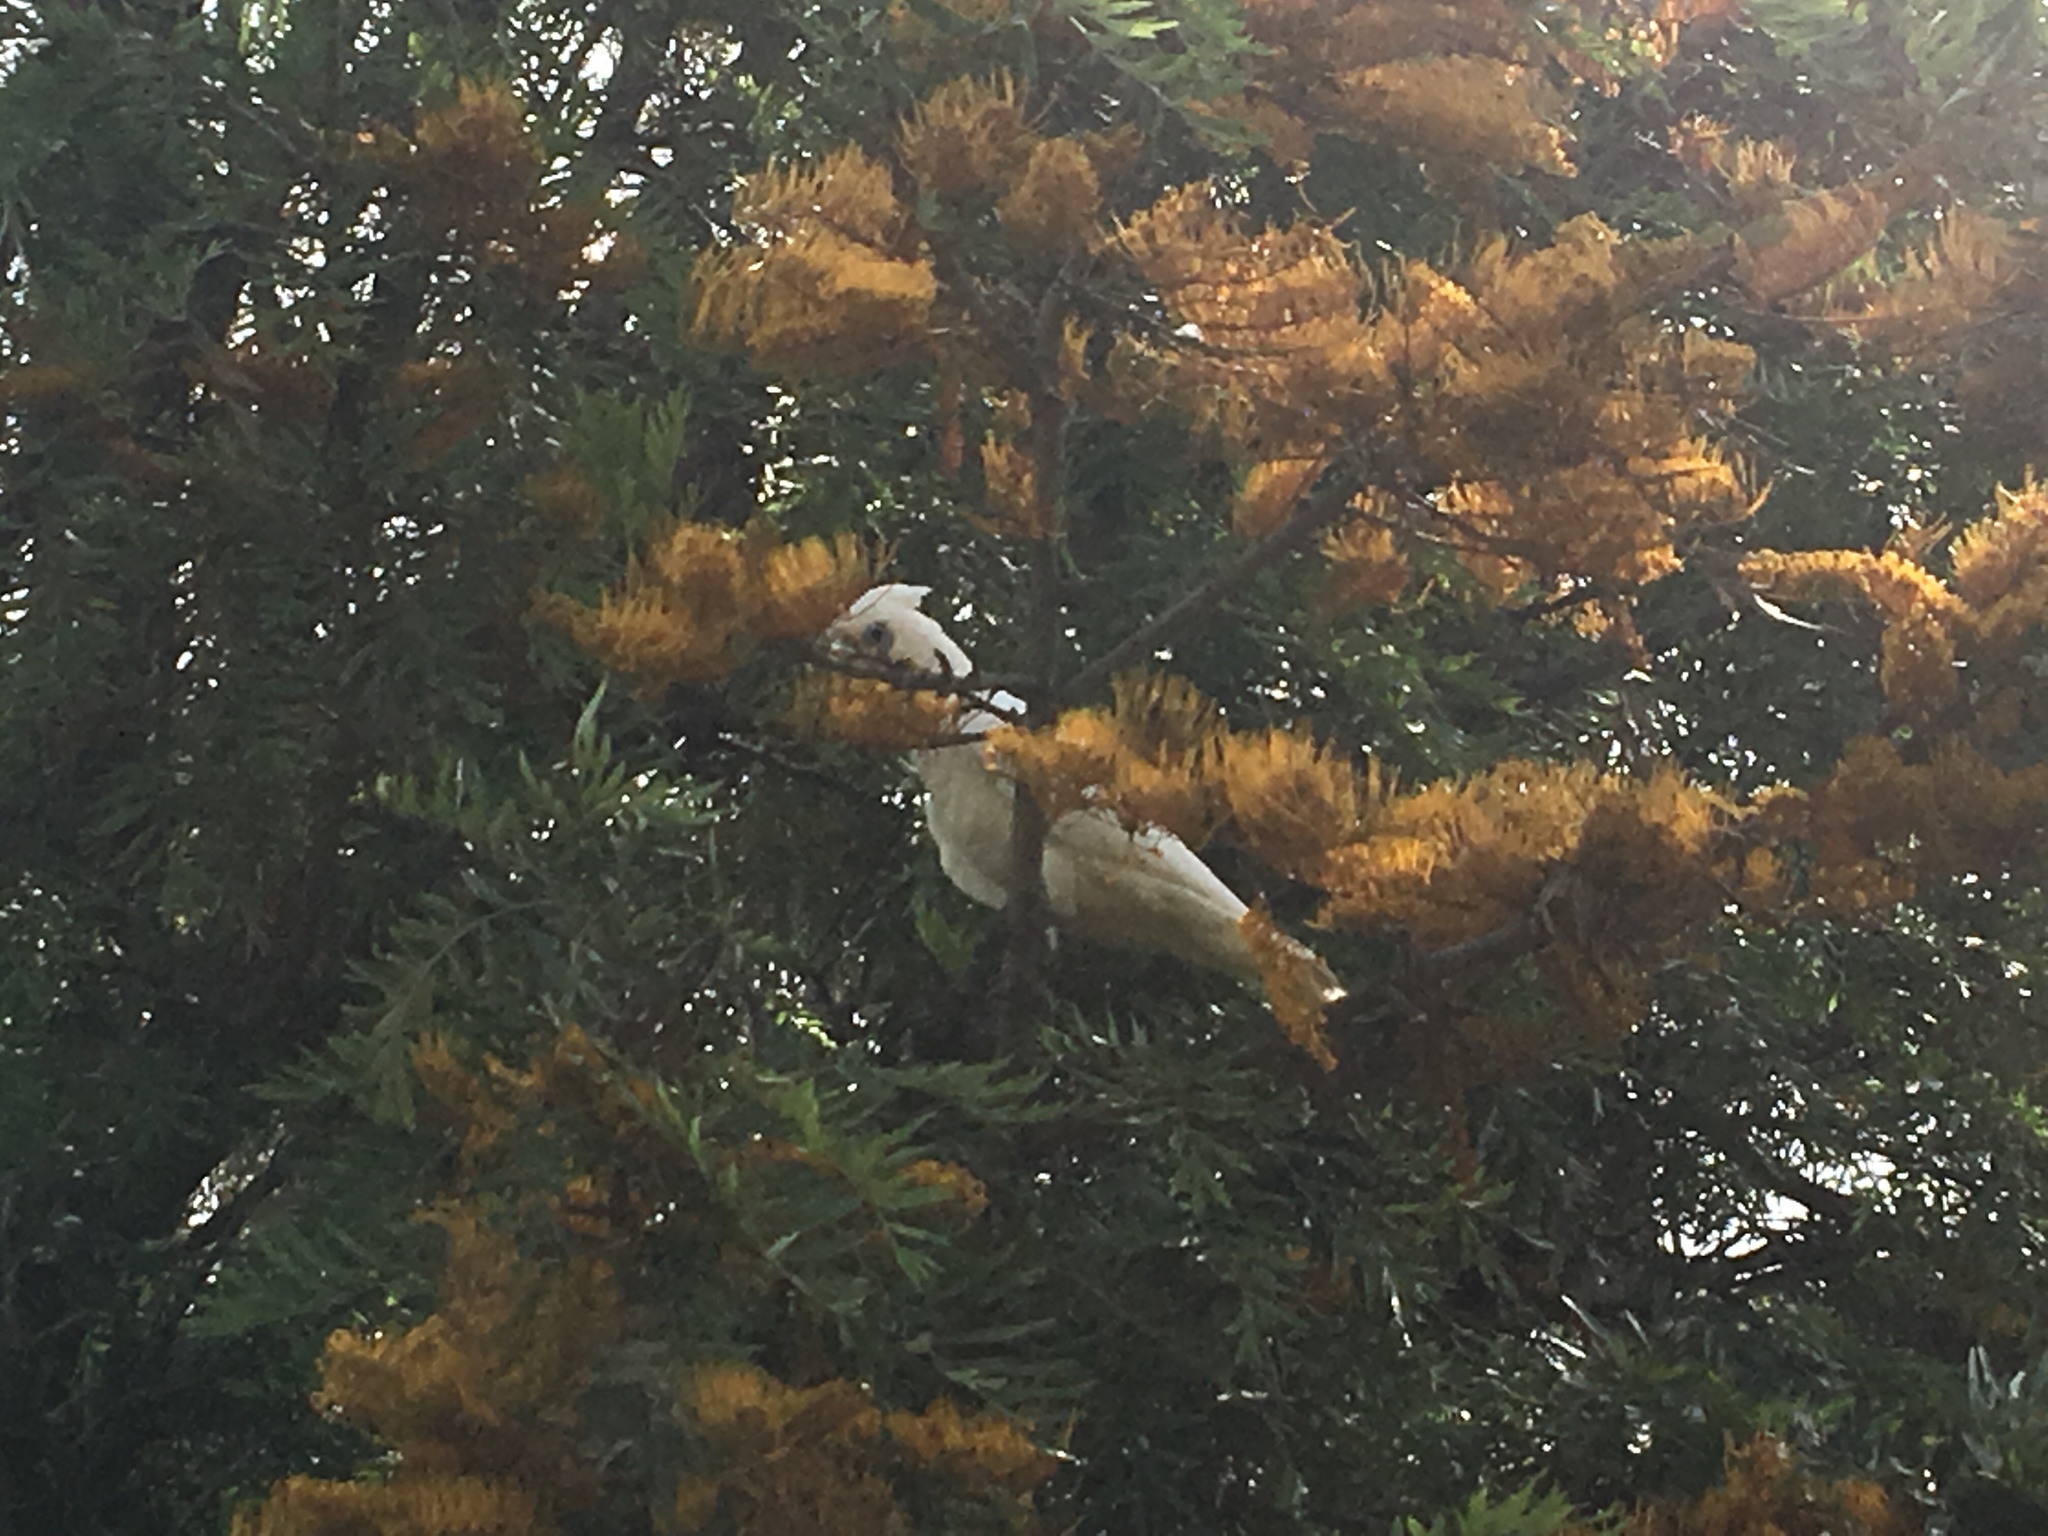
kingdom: Animalia
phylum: Chordata
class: Aves
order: Psittaciformes
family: Psittacidae
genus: Cacatua
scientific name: Cacatua sanguinea
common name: Little corella
